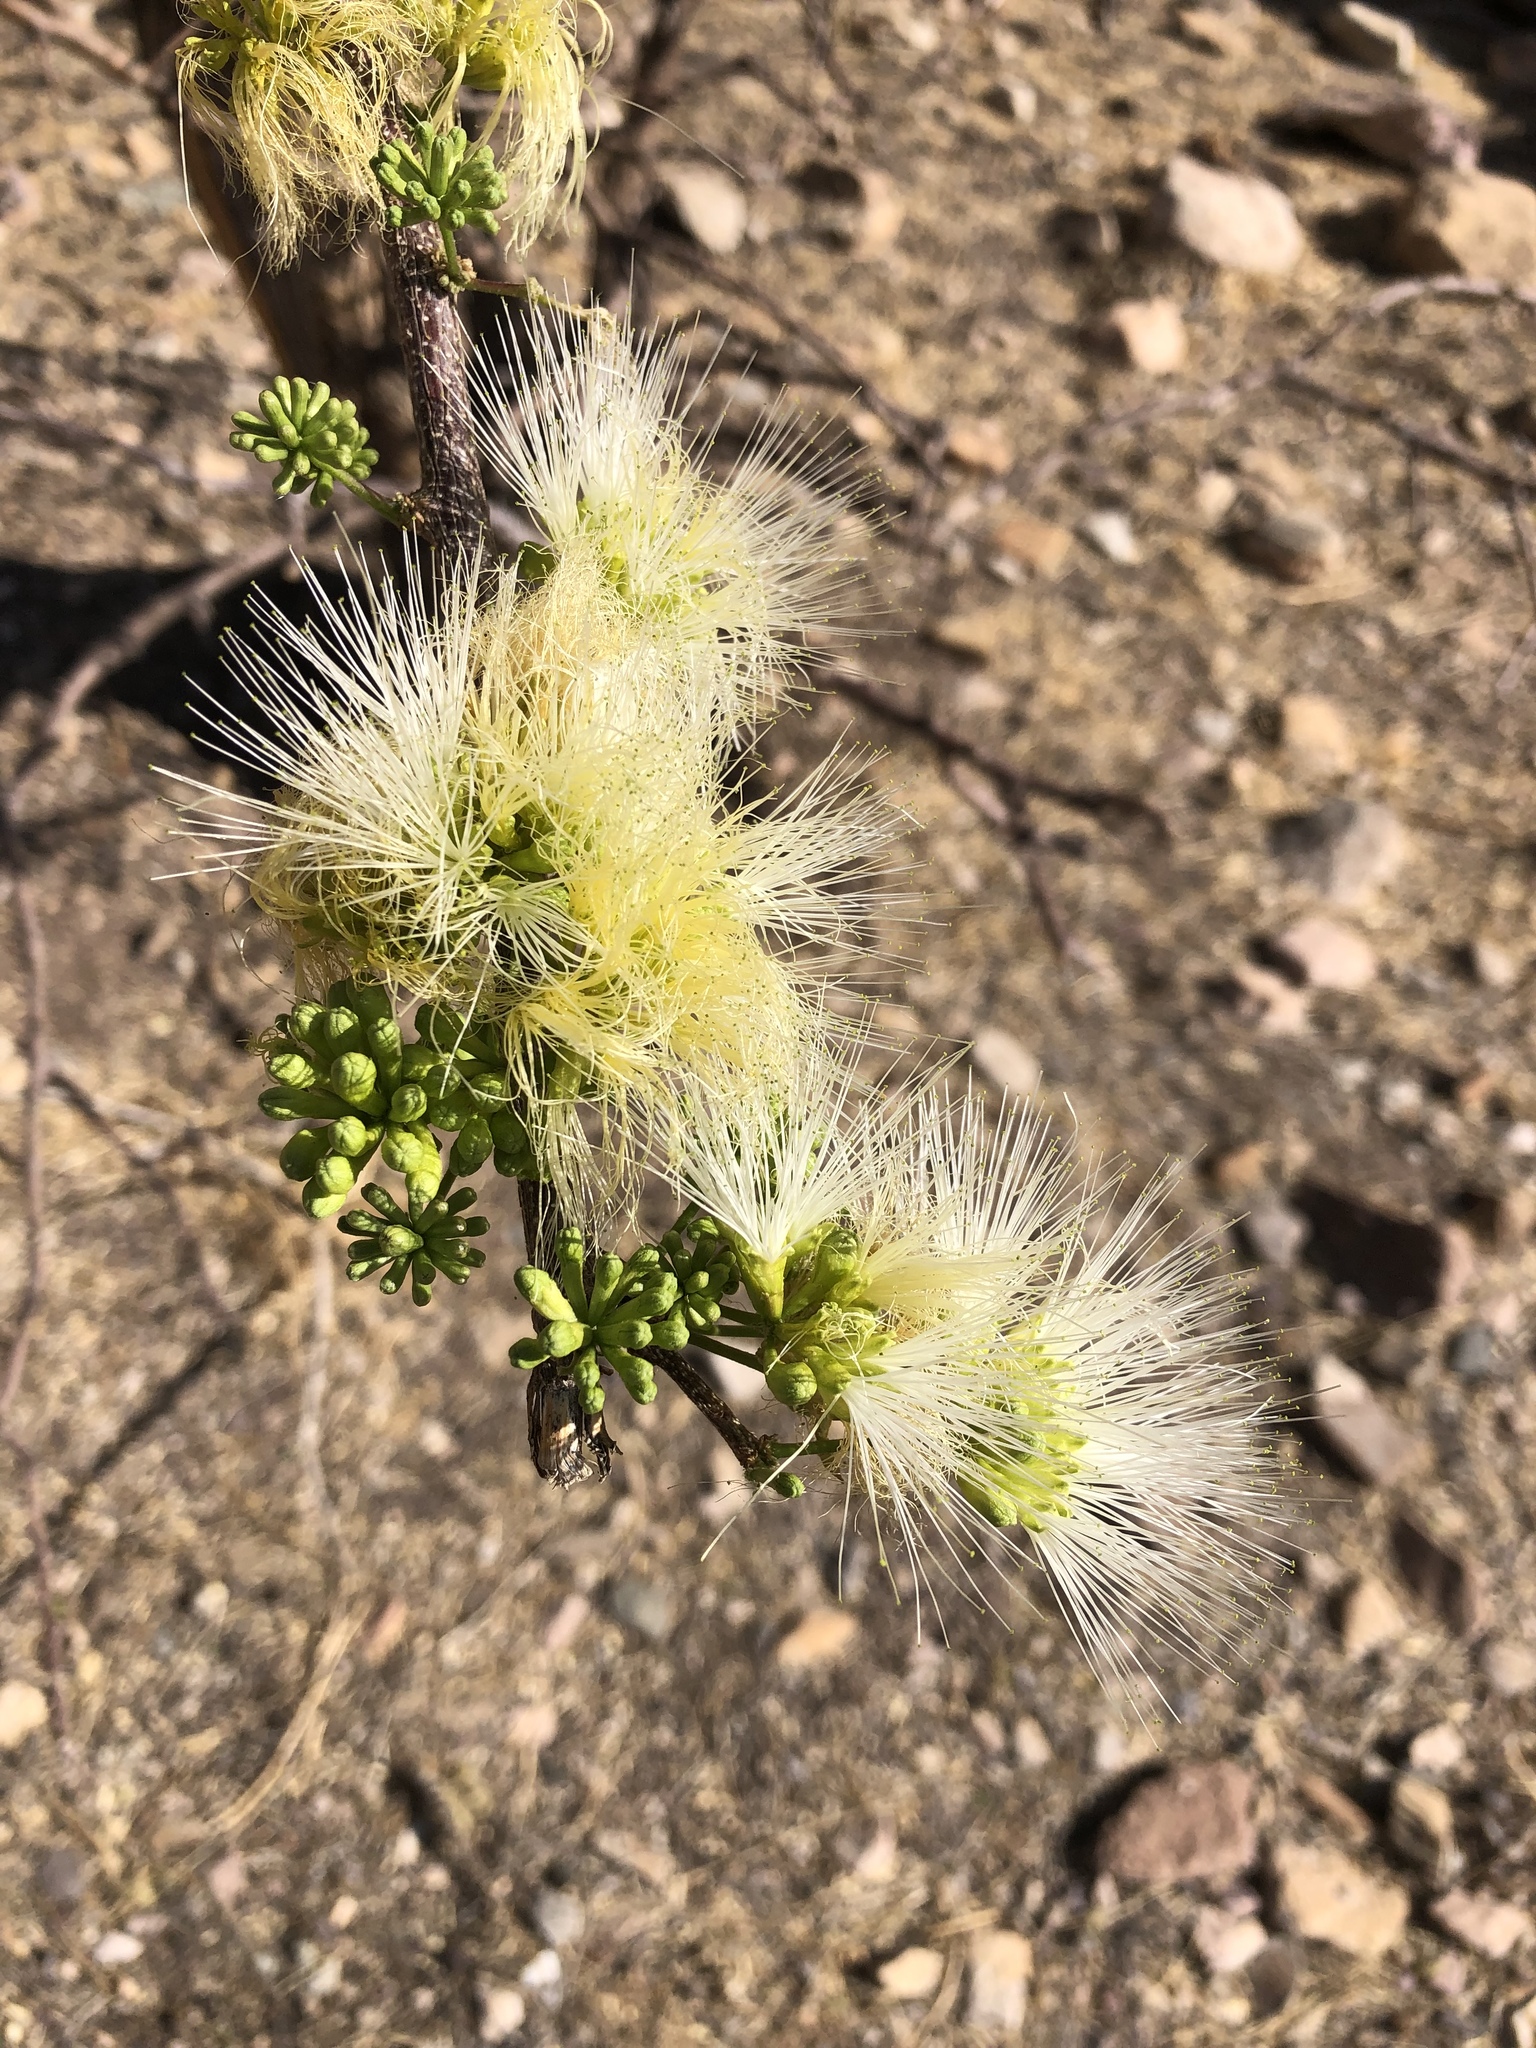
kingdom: Plantae
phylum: Tracheophyta
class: Magnoliopsida
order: Fabales
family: Fabaceae
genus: Albizia
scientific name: Albizia anthelmintica
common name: Worm-bark false-thorn
